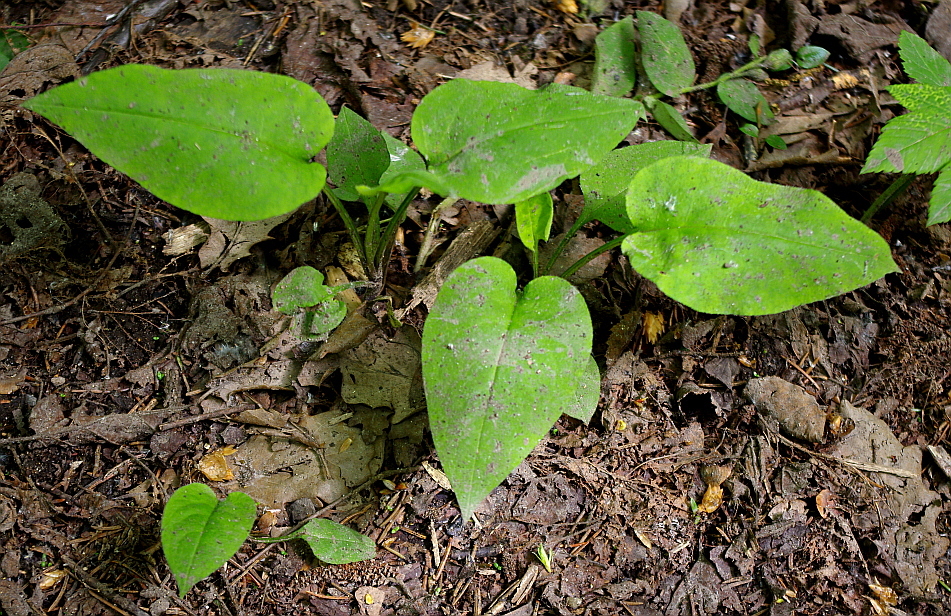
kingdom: Plantae
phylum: Tracheophyta
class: Magnoliopsida
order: Boraginales
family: Boraginaceae
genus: Pulmonaria
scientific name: Pulmonaria obscura
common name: Suffolk lungwort
